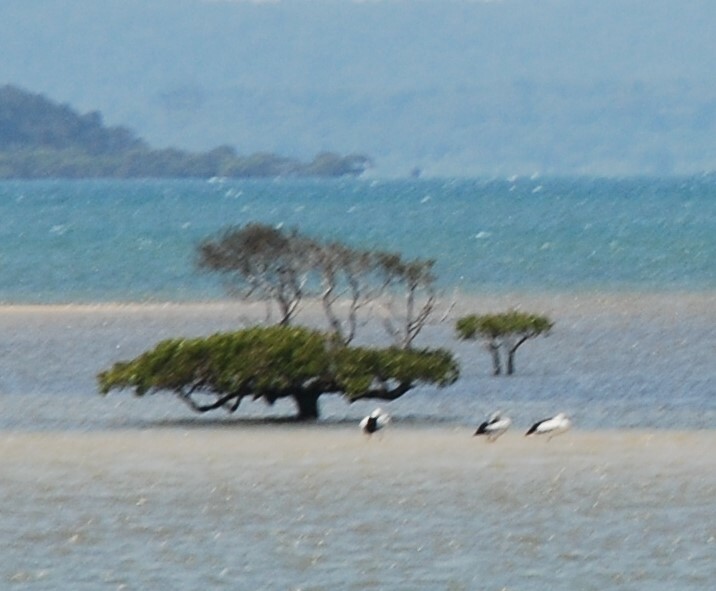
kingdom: Animalia
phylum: Chordata
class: Aves
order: Pelecaniformes
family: Pelecanidae
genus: Pelecanus
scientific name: Pelecanus conspicillatus
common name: Australian pelican
